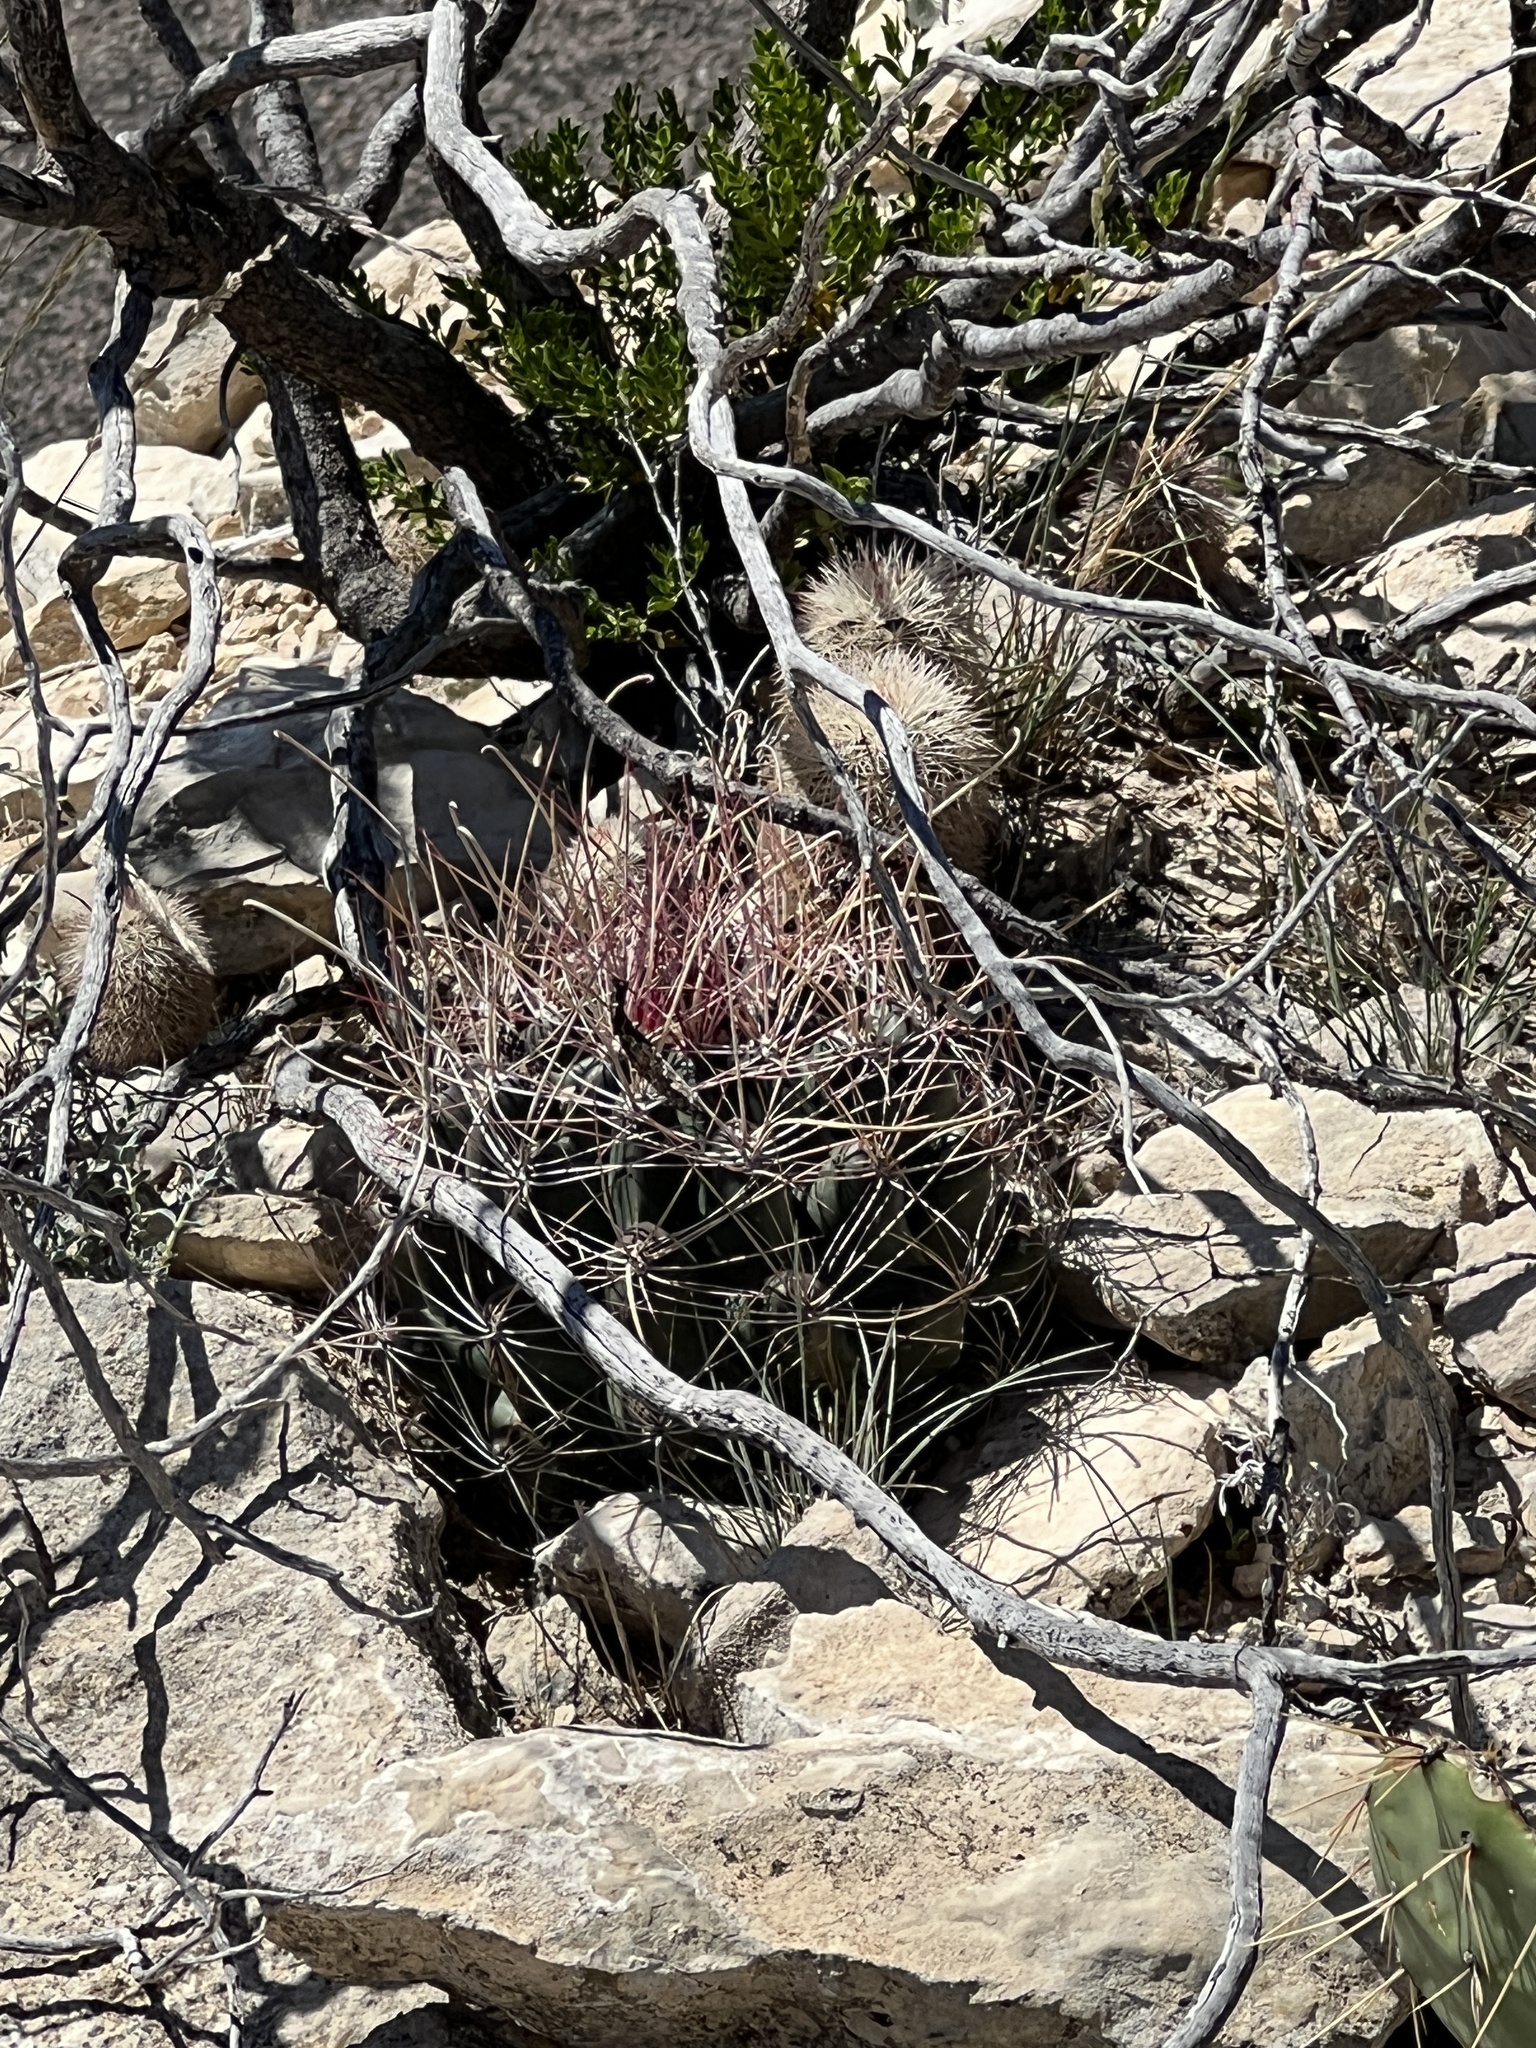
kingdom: Plantae
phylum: Tracheophyta
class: Magnoliopsida
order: Caryophyllales
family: Cactaceae
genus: Bisnaga
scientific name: Bisnaga hamatacantha
